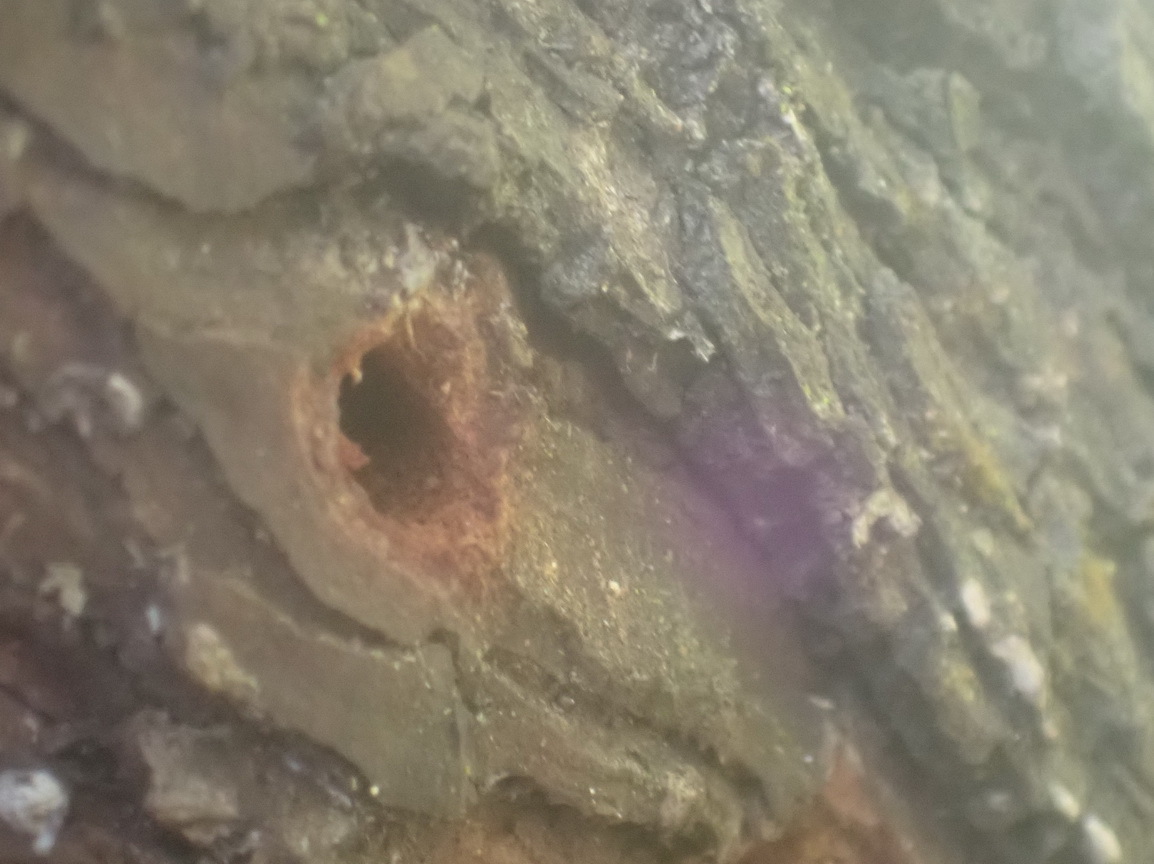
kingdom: Animalia
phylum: Arthropoda
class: Insecta
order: Hymenoptera
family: Pompilidae
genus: Java
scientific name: Java caroliwaterhousei
